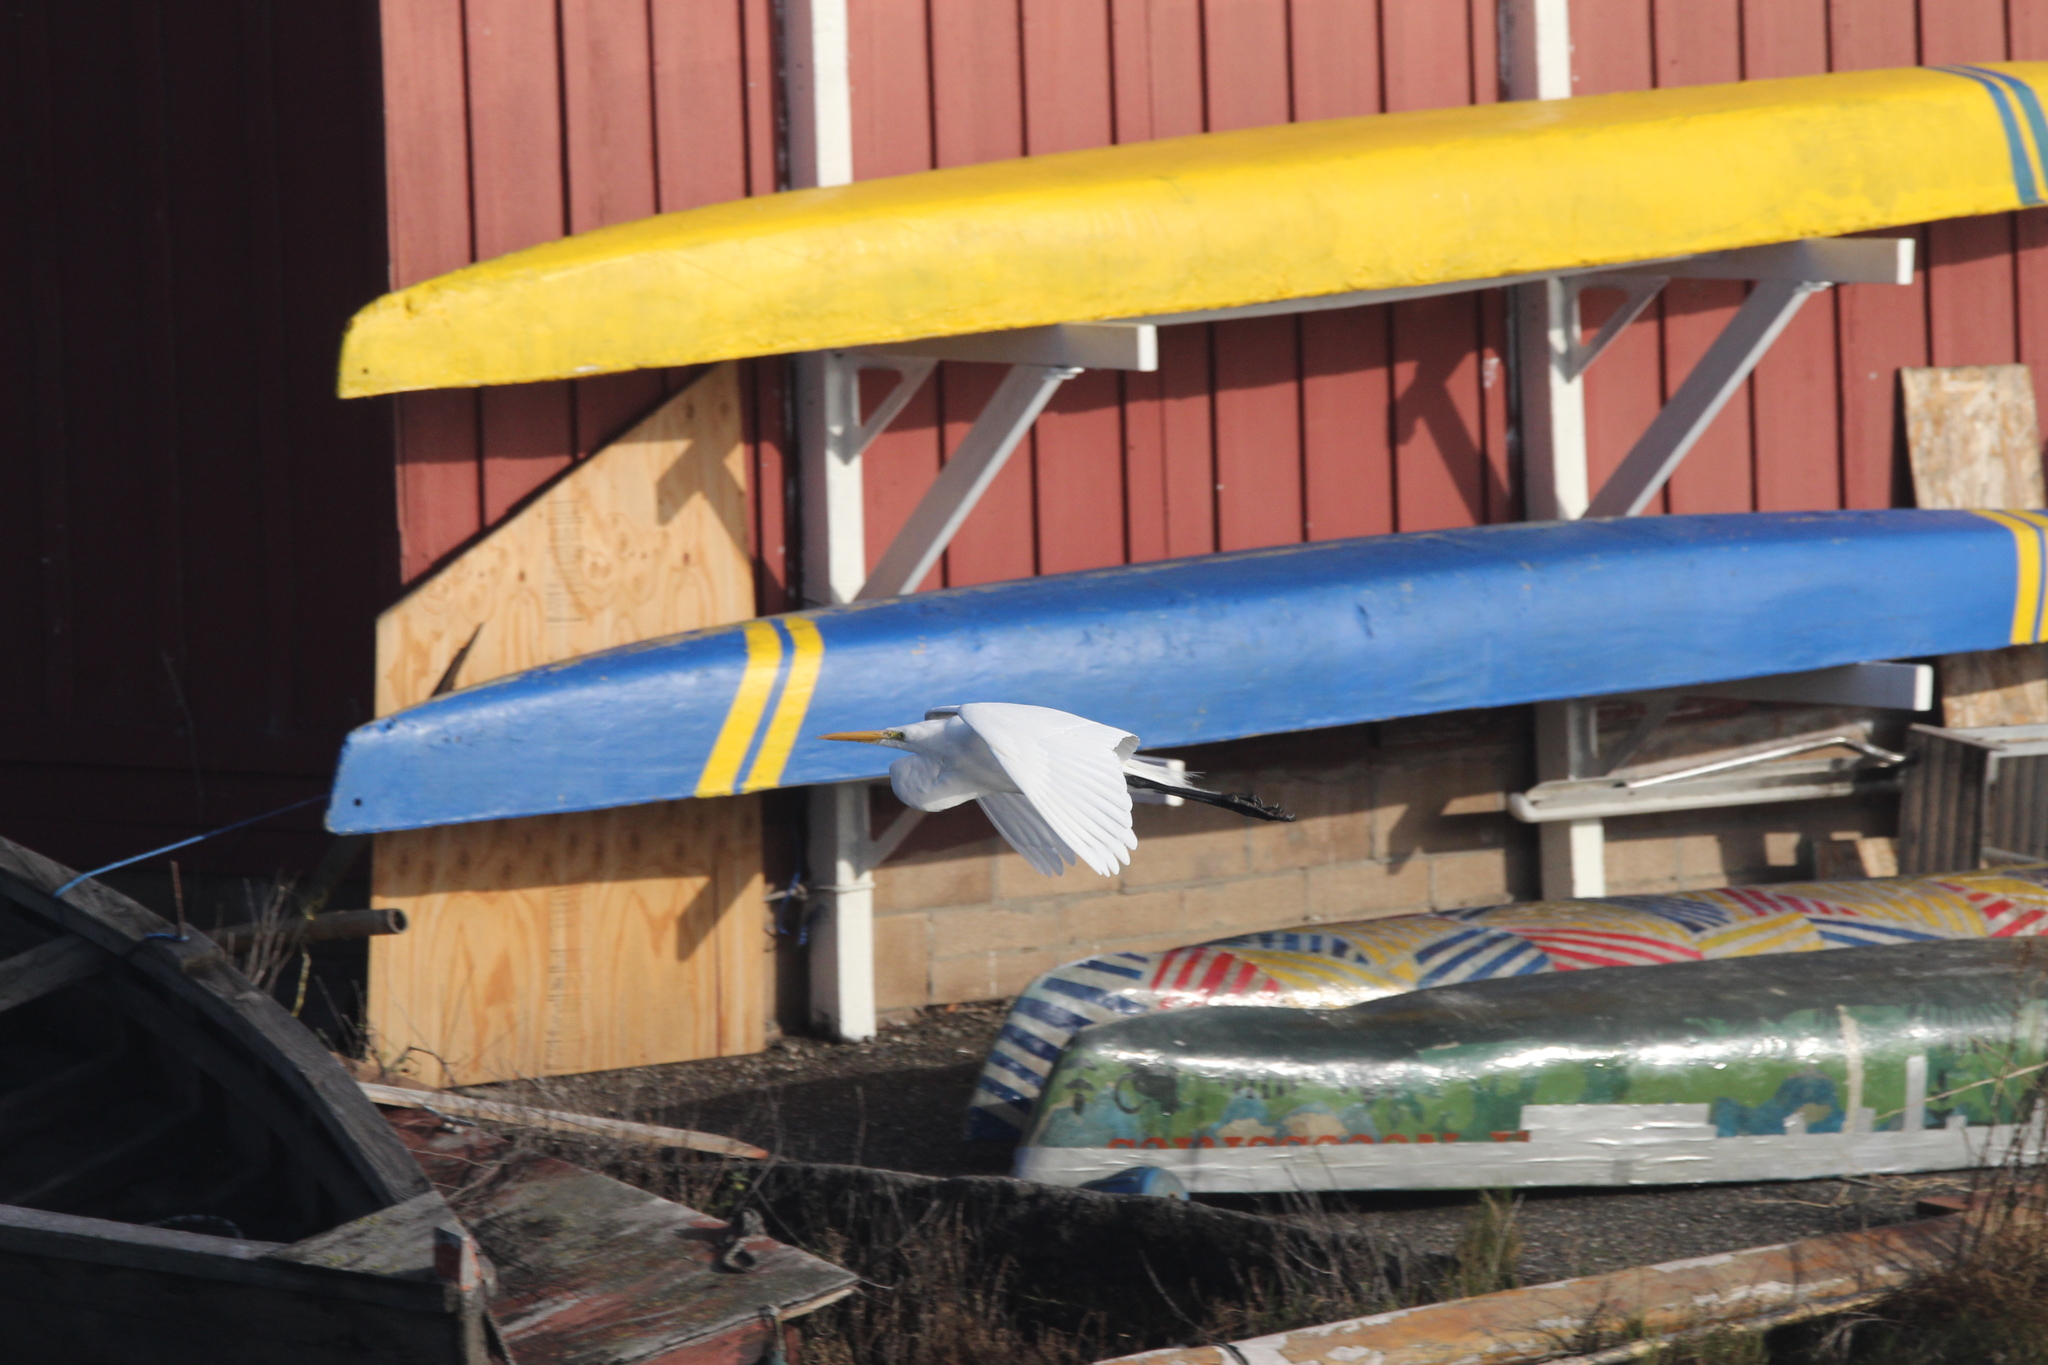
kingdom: Animalia
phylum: Chordata
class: Aves
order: Pelecaniformes
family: Ardeidae
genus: Ardea
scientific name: Ardea alba
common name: Great egret
